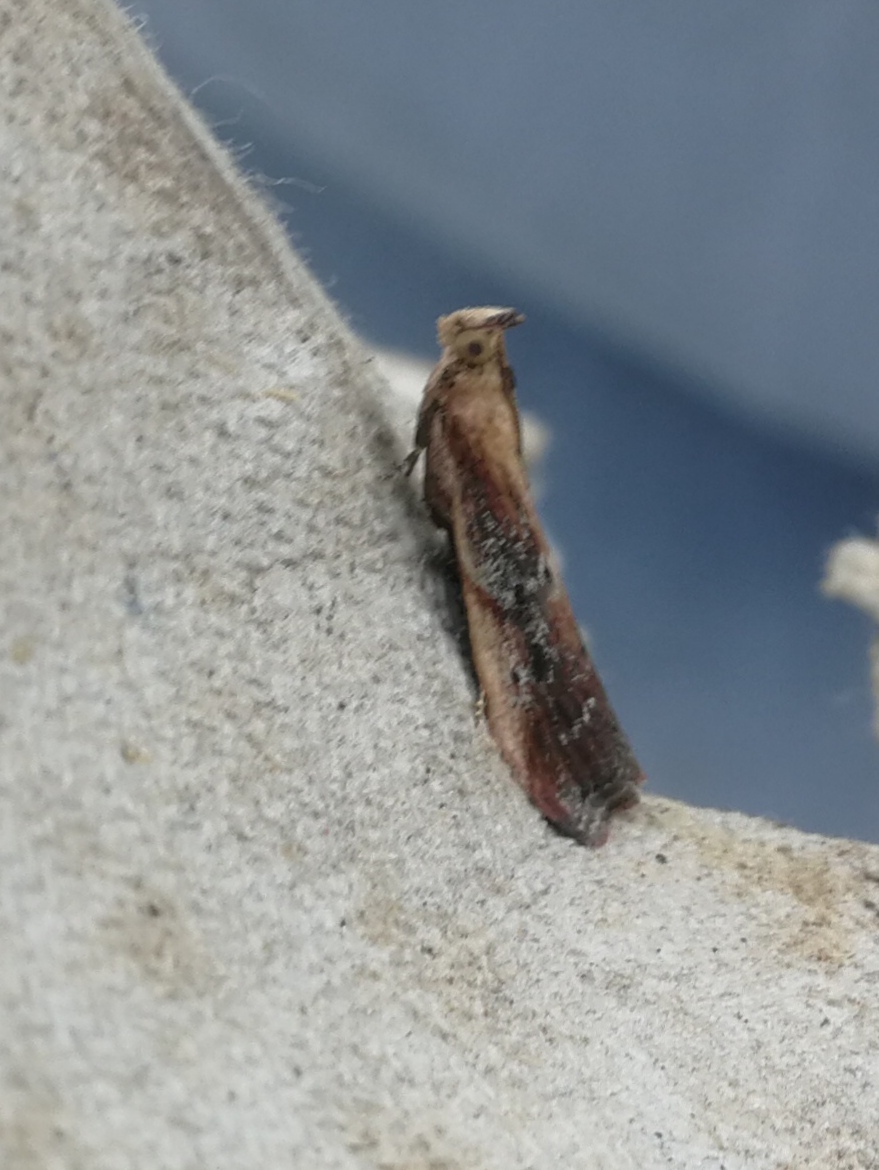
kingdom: Animalia
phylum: Arthropoda
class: Insecta
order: Lepidoptera
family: Pyralidae
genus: Uncinus
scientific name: Uncinus obductella
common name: Kent knot-horn
